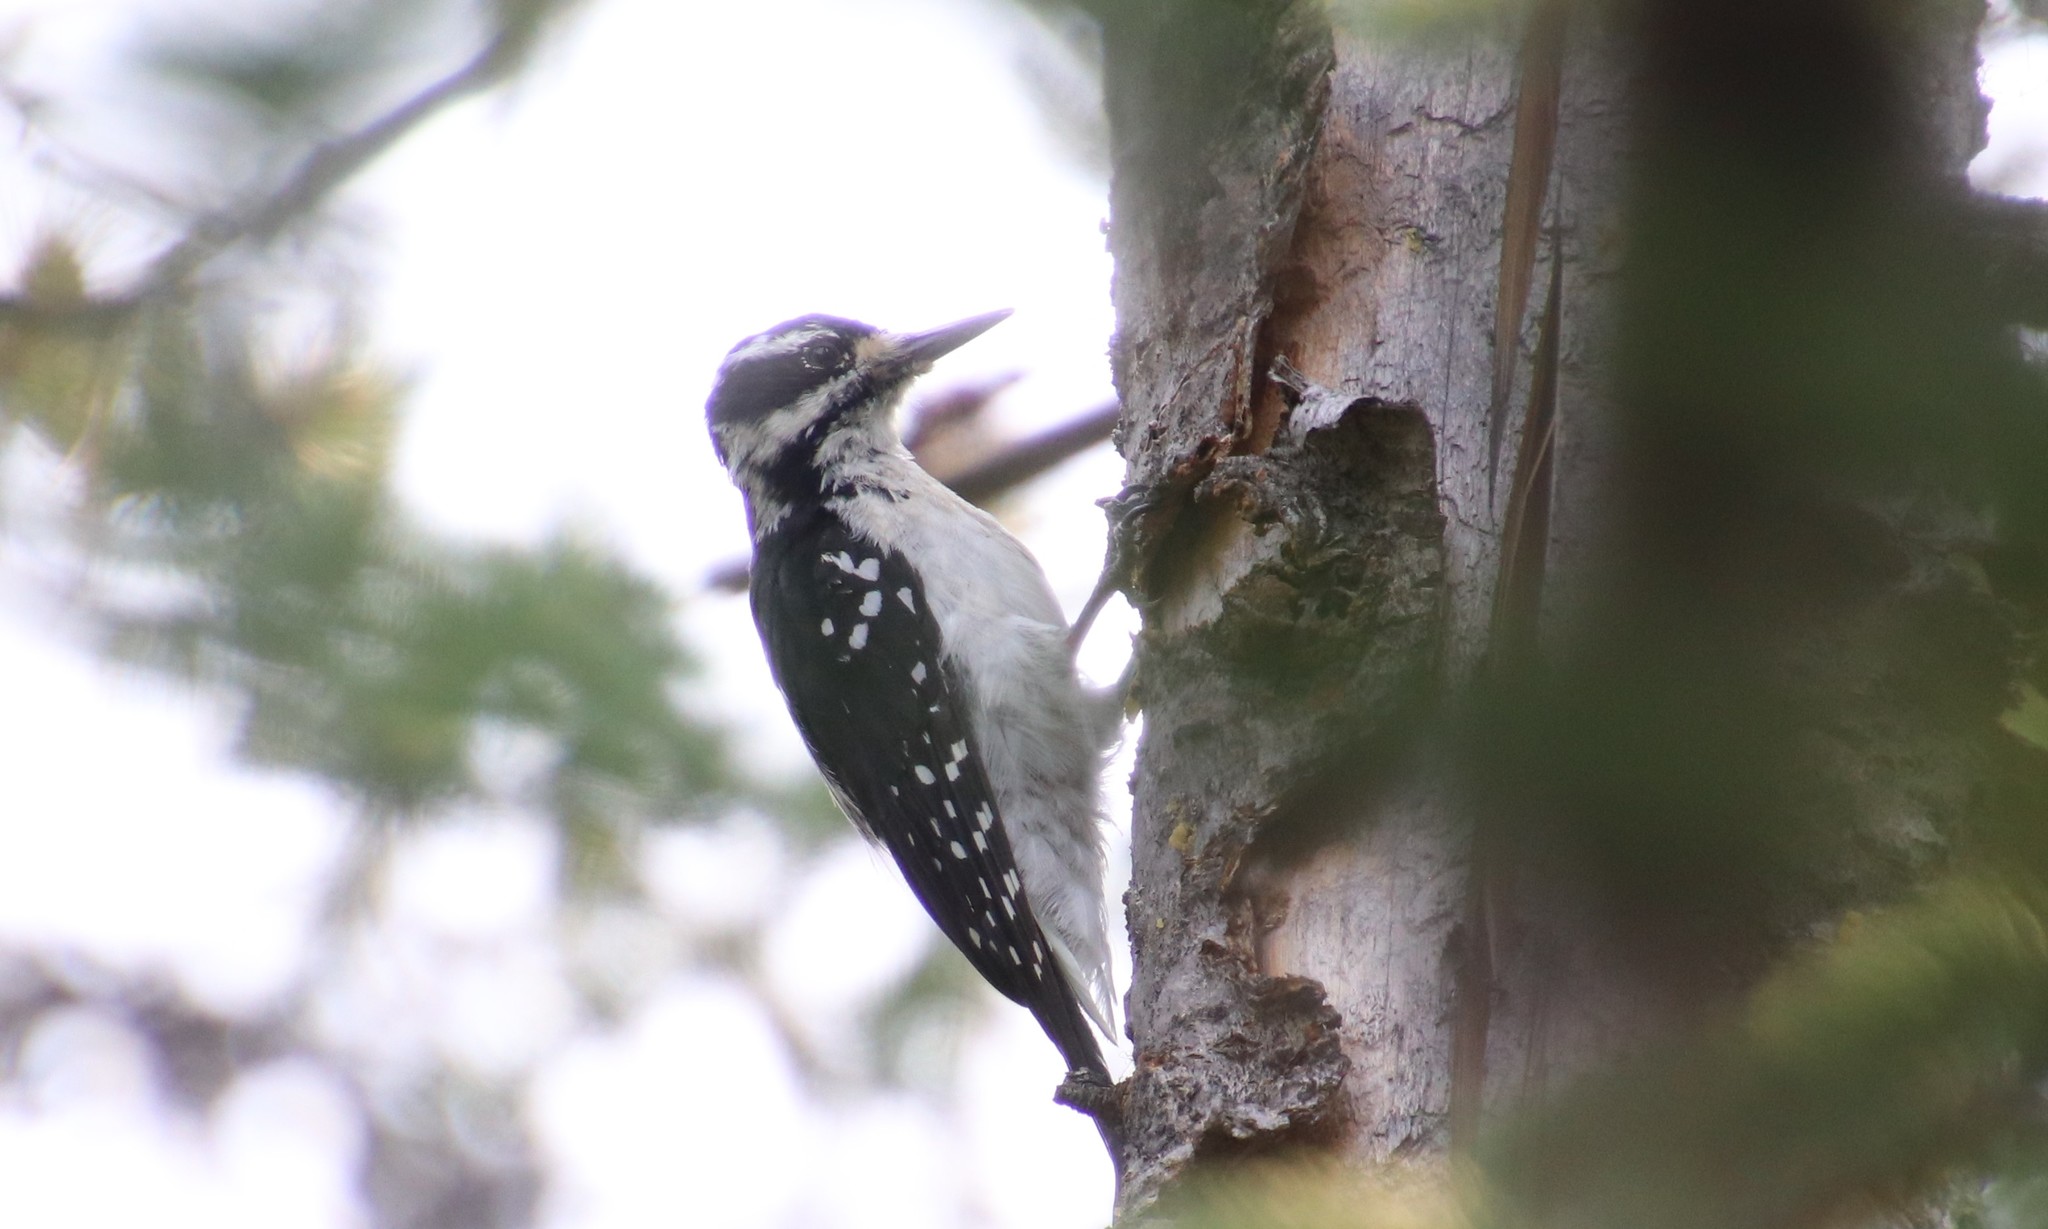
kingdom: Animalia
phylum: Chordata
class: Aves
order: Piciformes
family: Picidae
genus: Leuconotopicus
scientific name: Leuconotopicus villosus
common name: Hairy woodpecker
